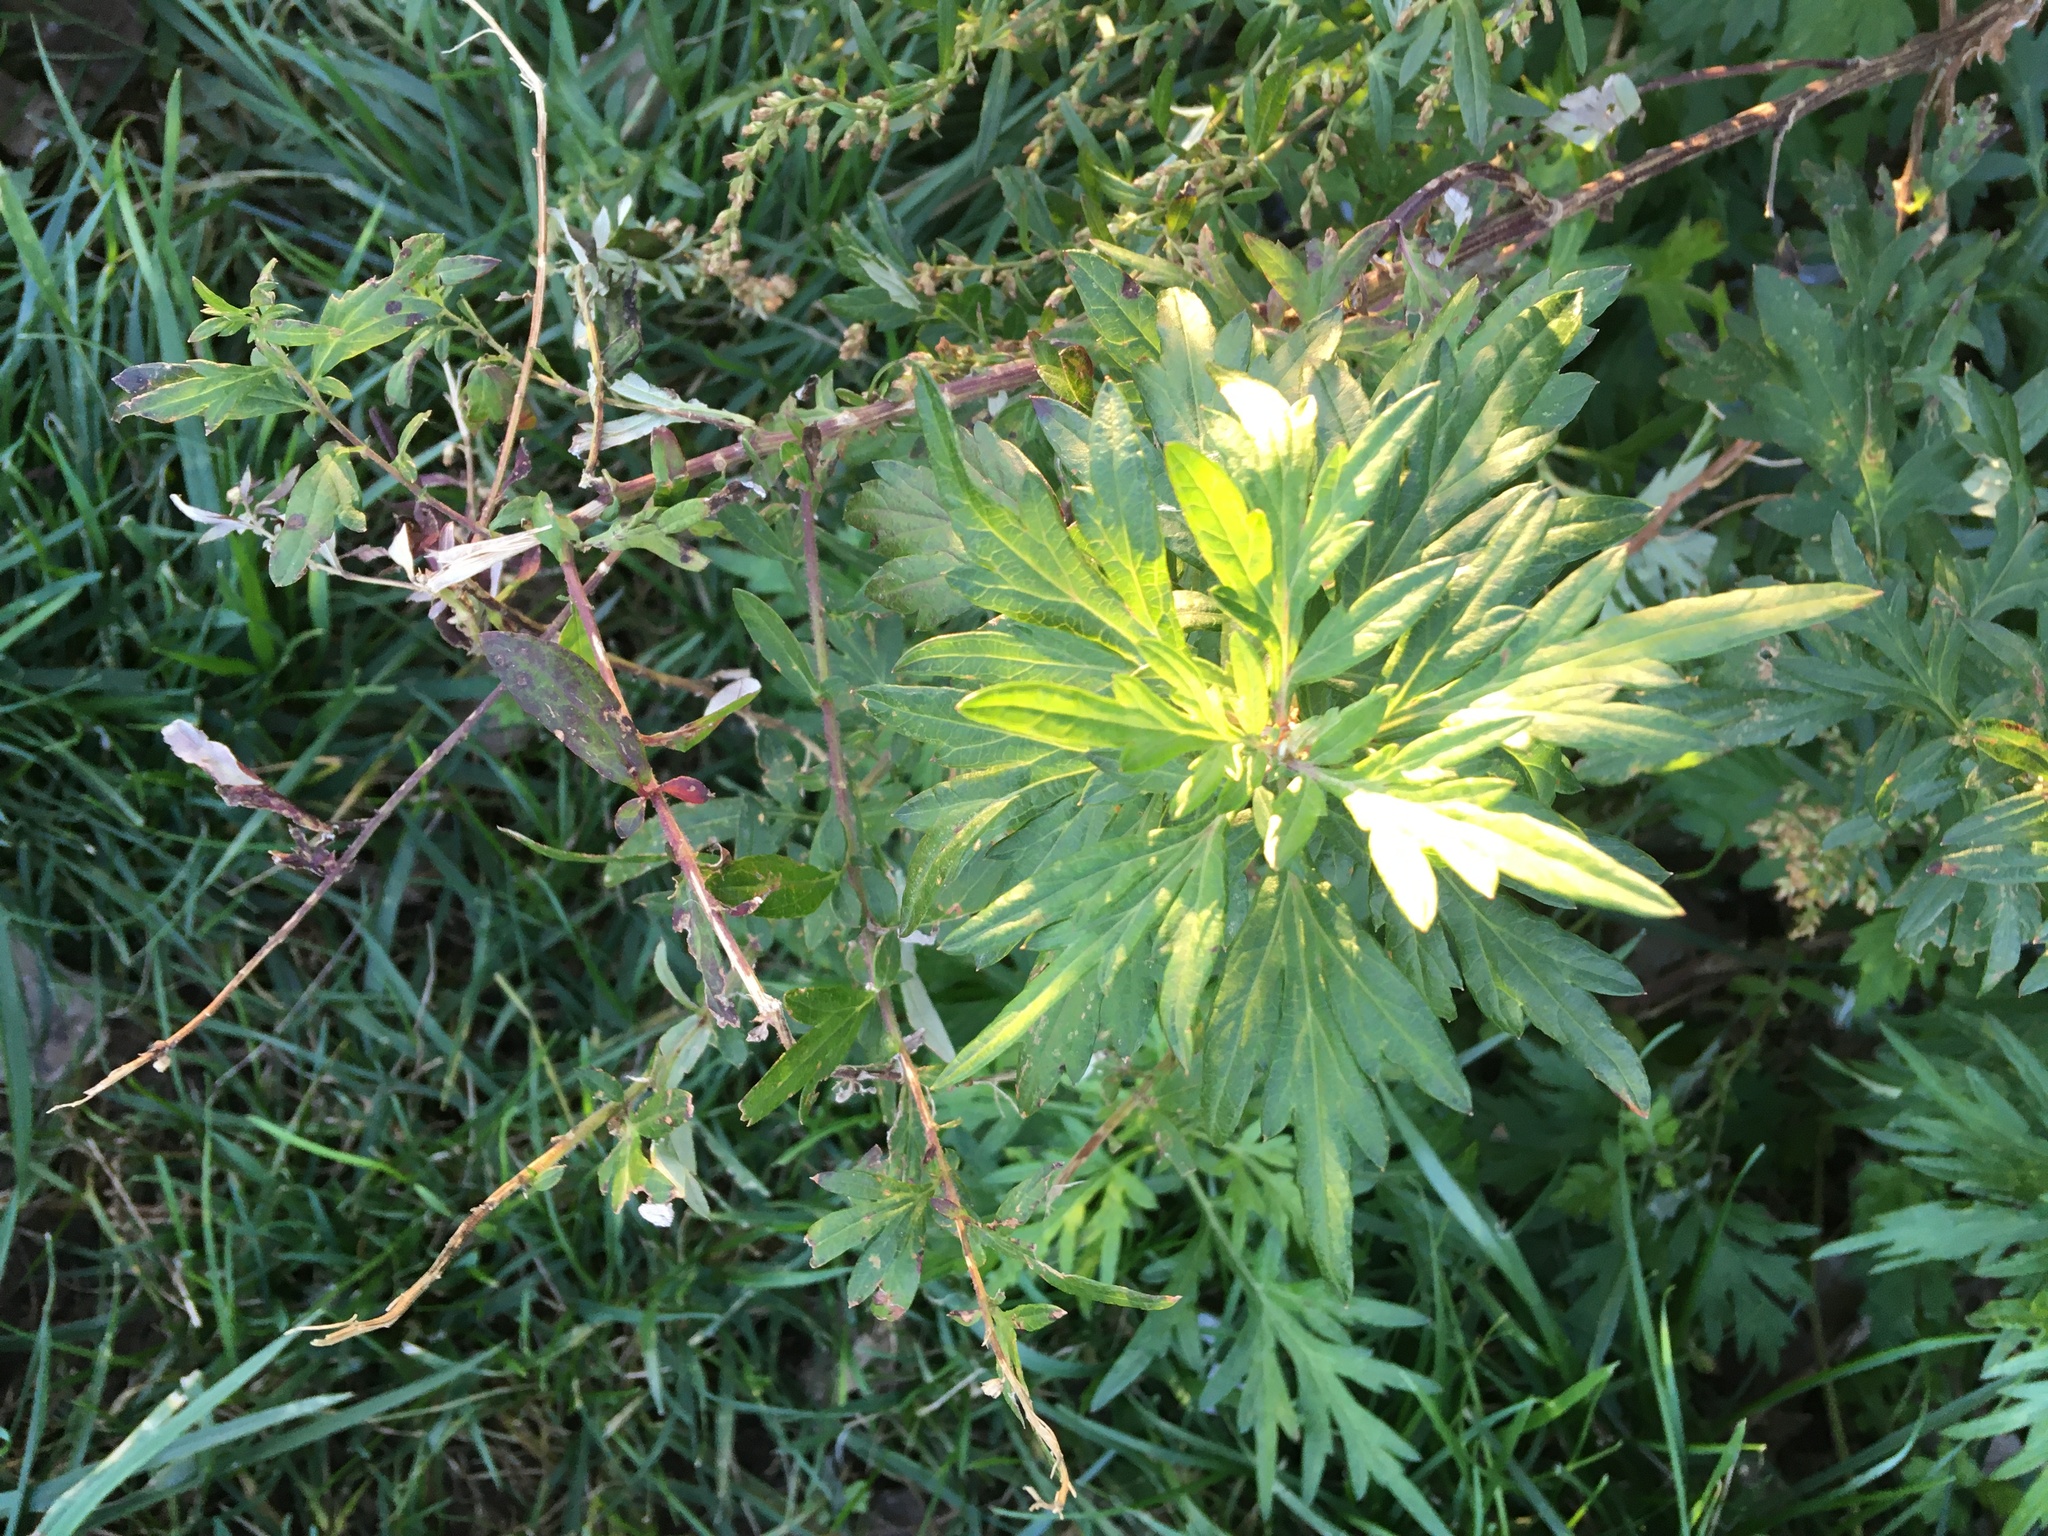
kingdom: Plantae
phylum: Tracheophyta
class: Magnoliopsida
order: Asterales
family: Asteraceae
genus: Artemisia
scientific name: Artemisia vulgaris
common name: Mugwort
